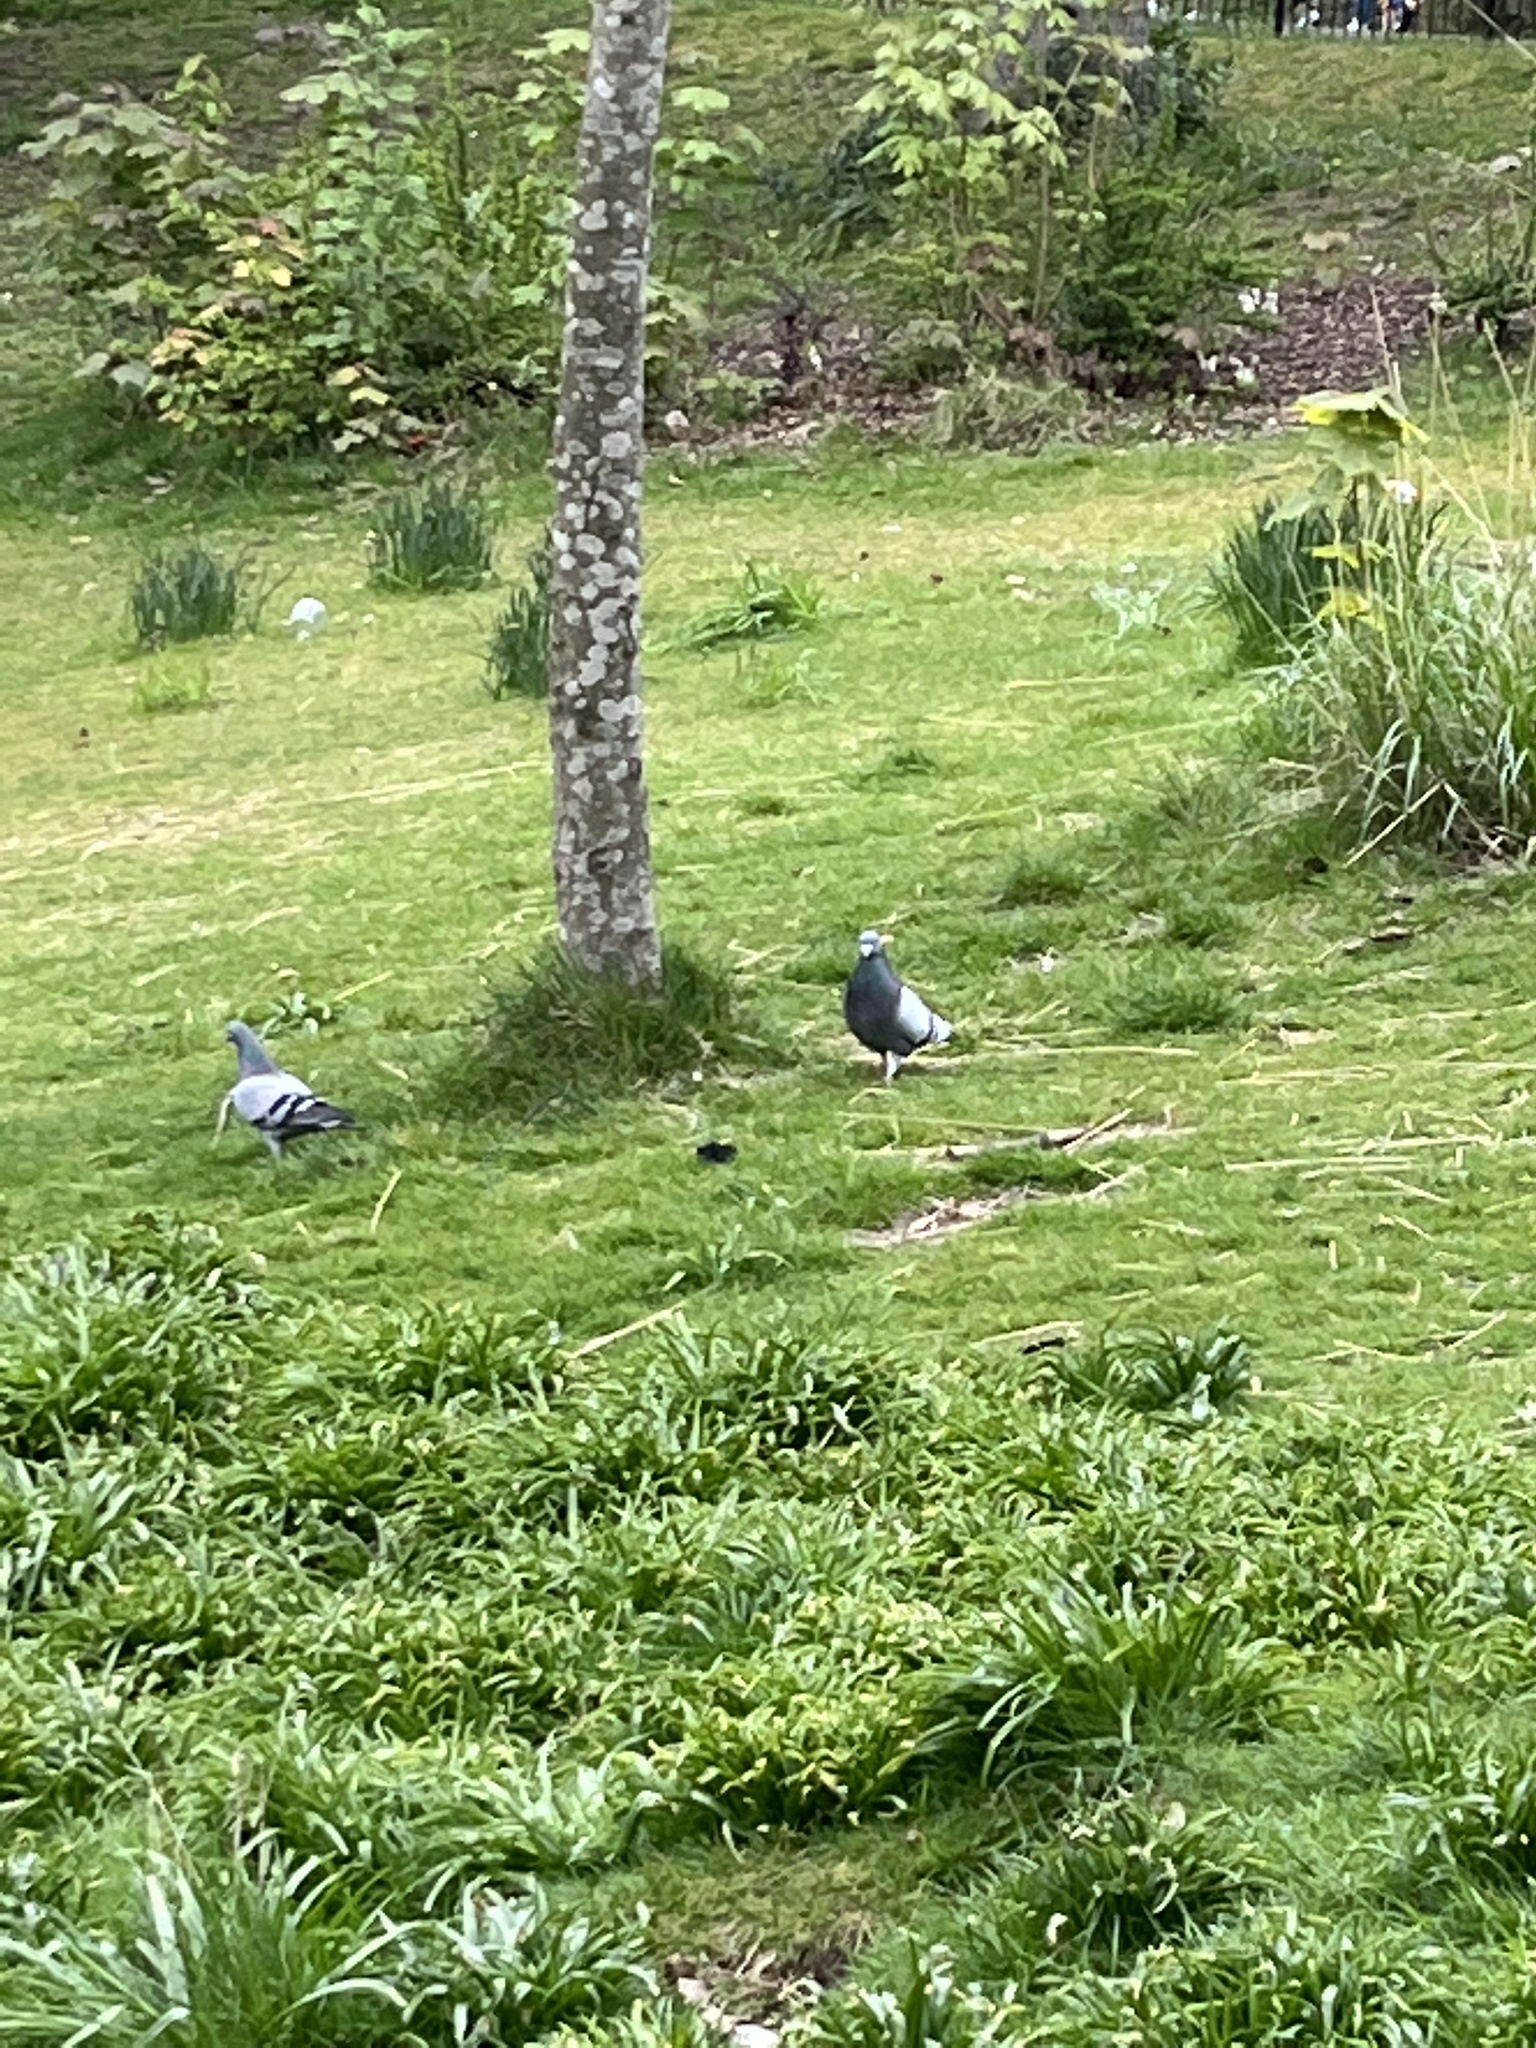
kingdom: Animalia
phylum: Chordata
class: Aves
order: Columbiformes
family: Columbidae
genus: Columba
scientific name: Columba livia
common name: Rock pigeon
